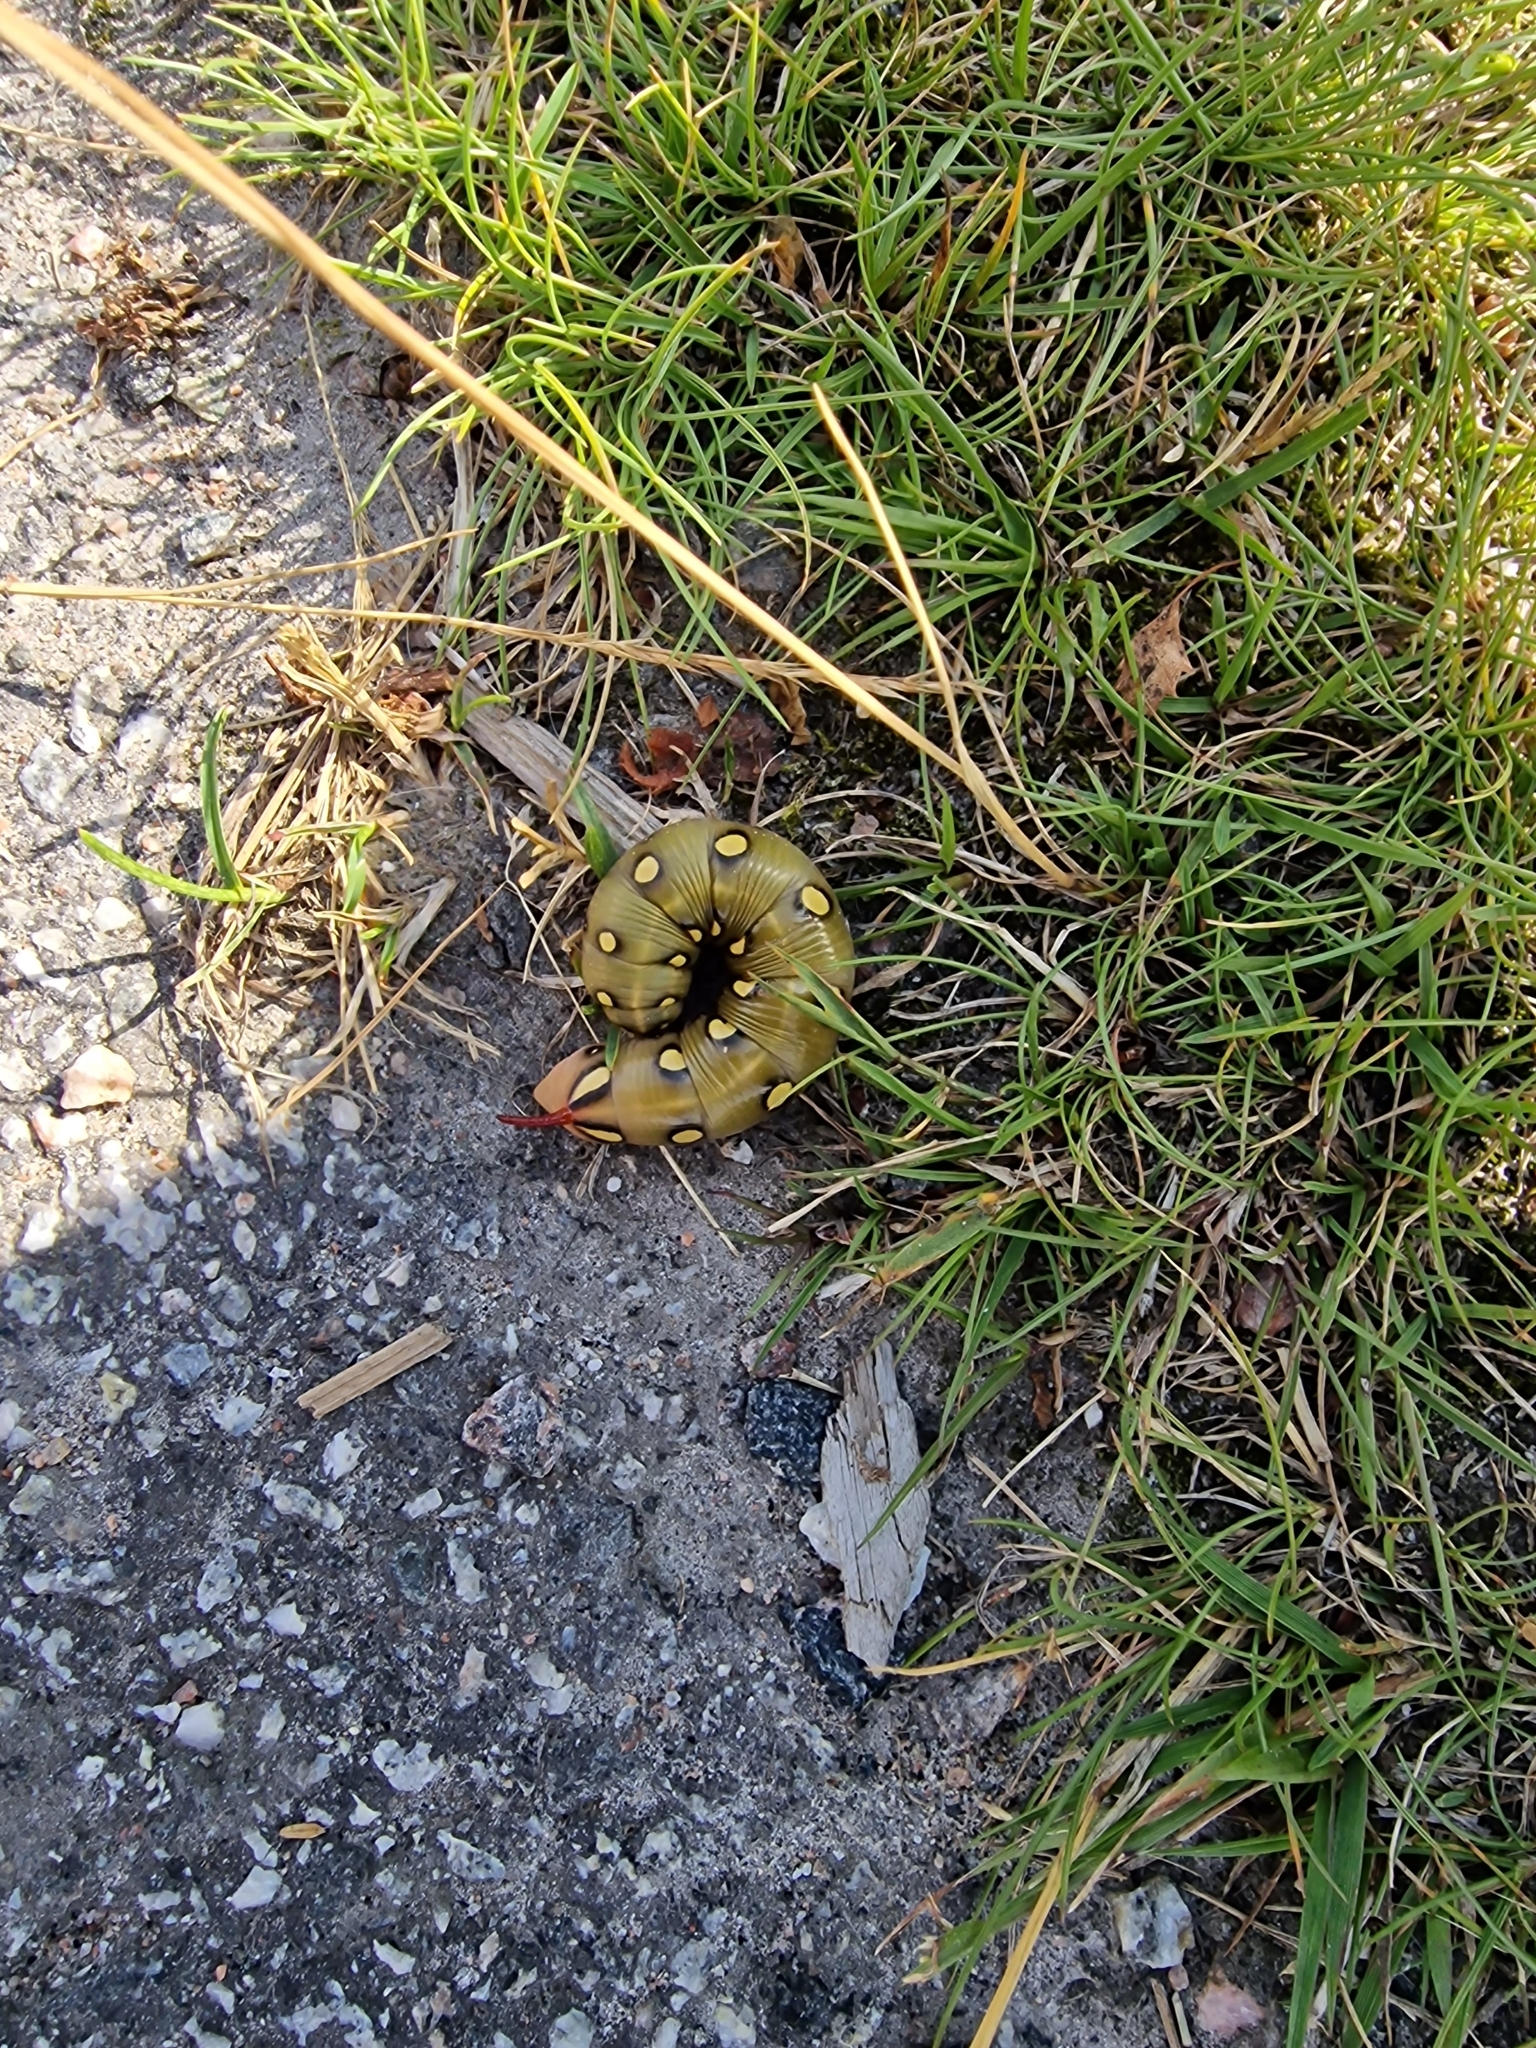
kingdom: Animalia
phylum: Arthropoda
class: Insecta
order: Lepidoptera
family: Sphingidae
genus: Hyles
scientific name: Hyles gallii
